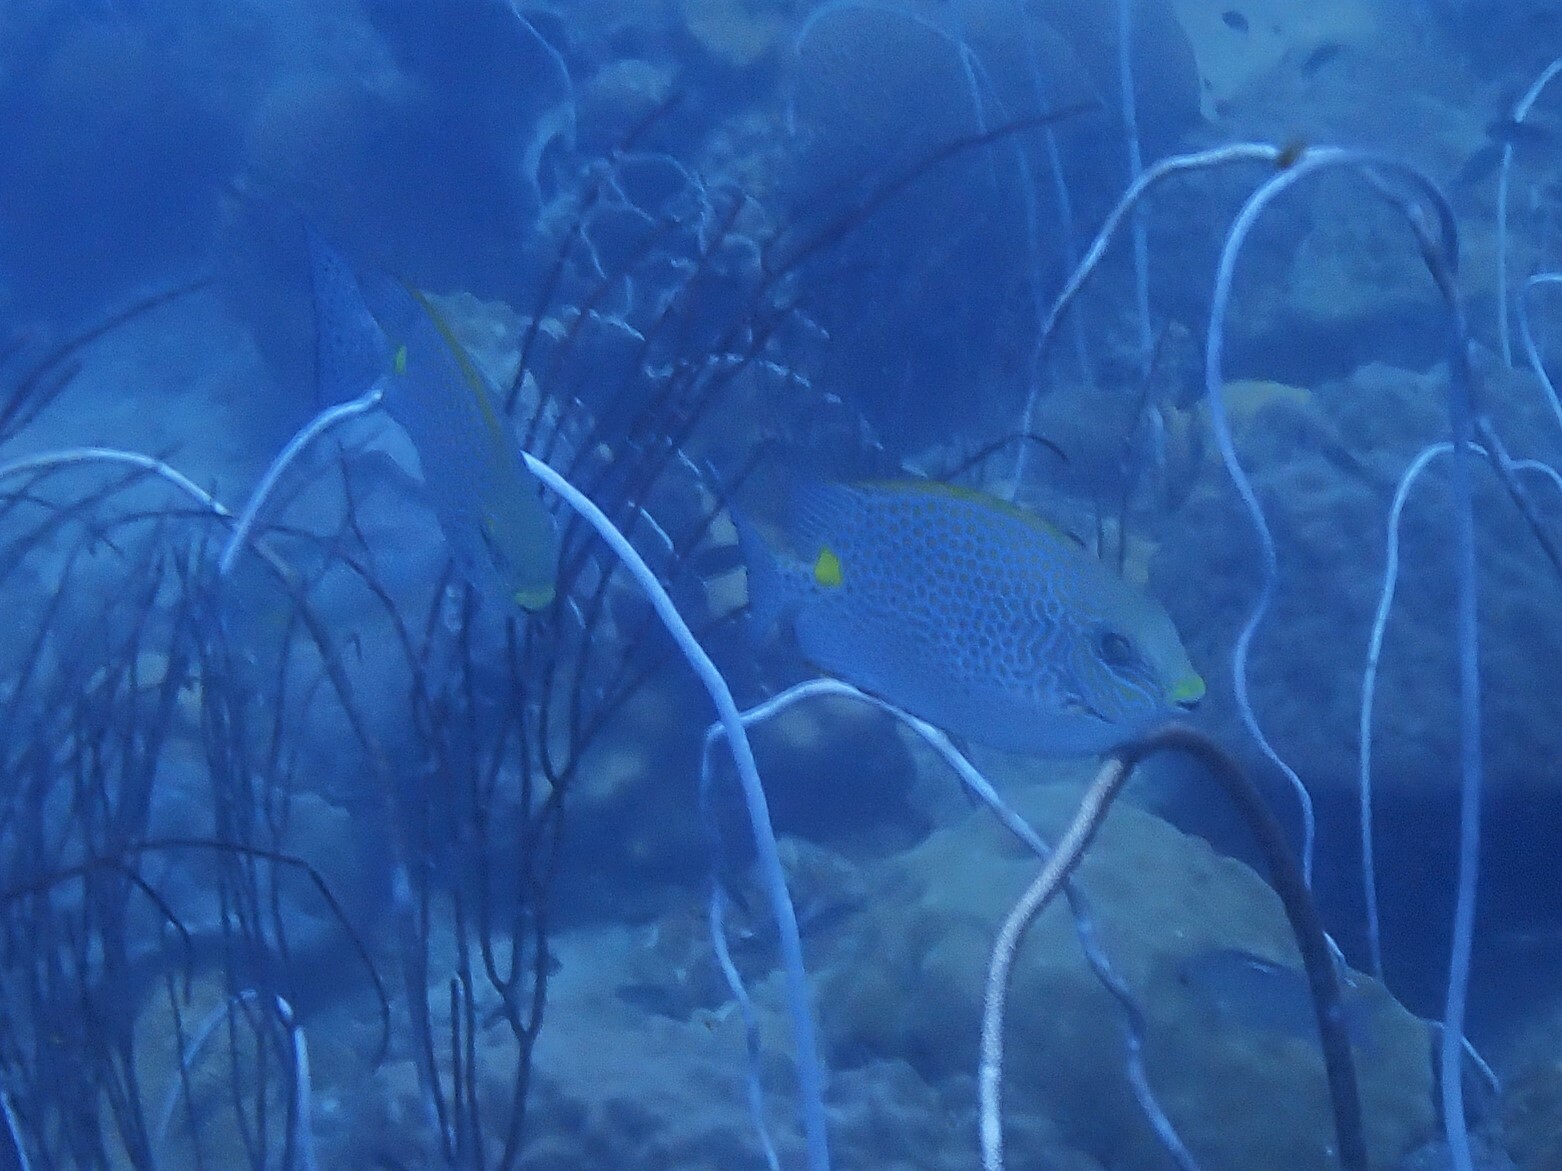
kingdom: Animalia
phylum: Chordata
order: Perciformes
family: Siganidae
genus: Siganus
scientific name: Siganus guttatus
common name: Golden rabbitfish
